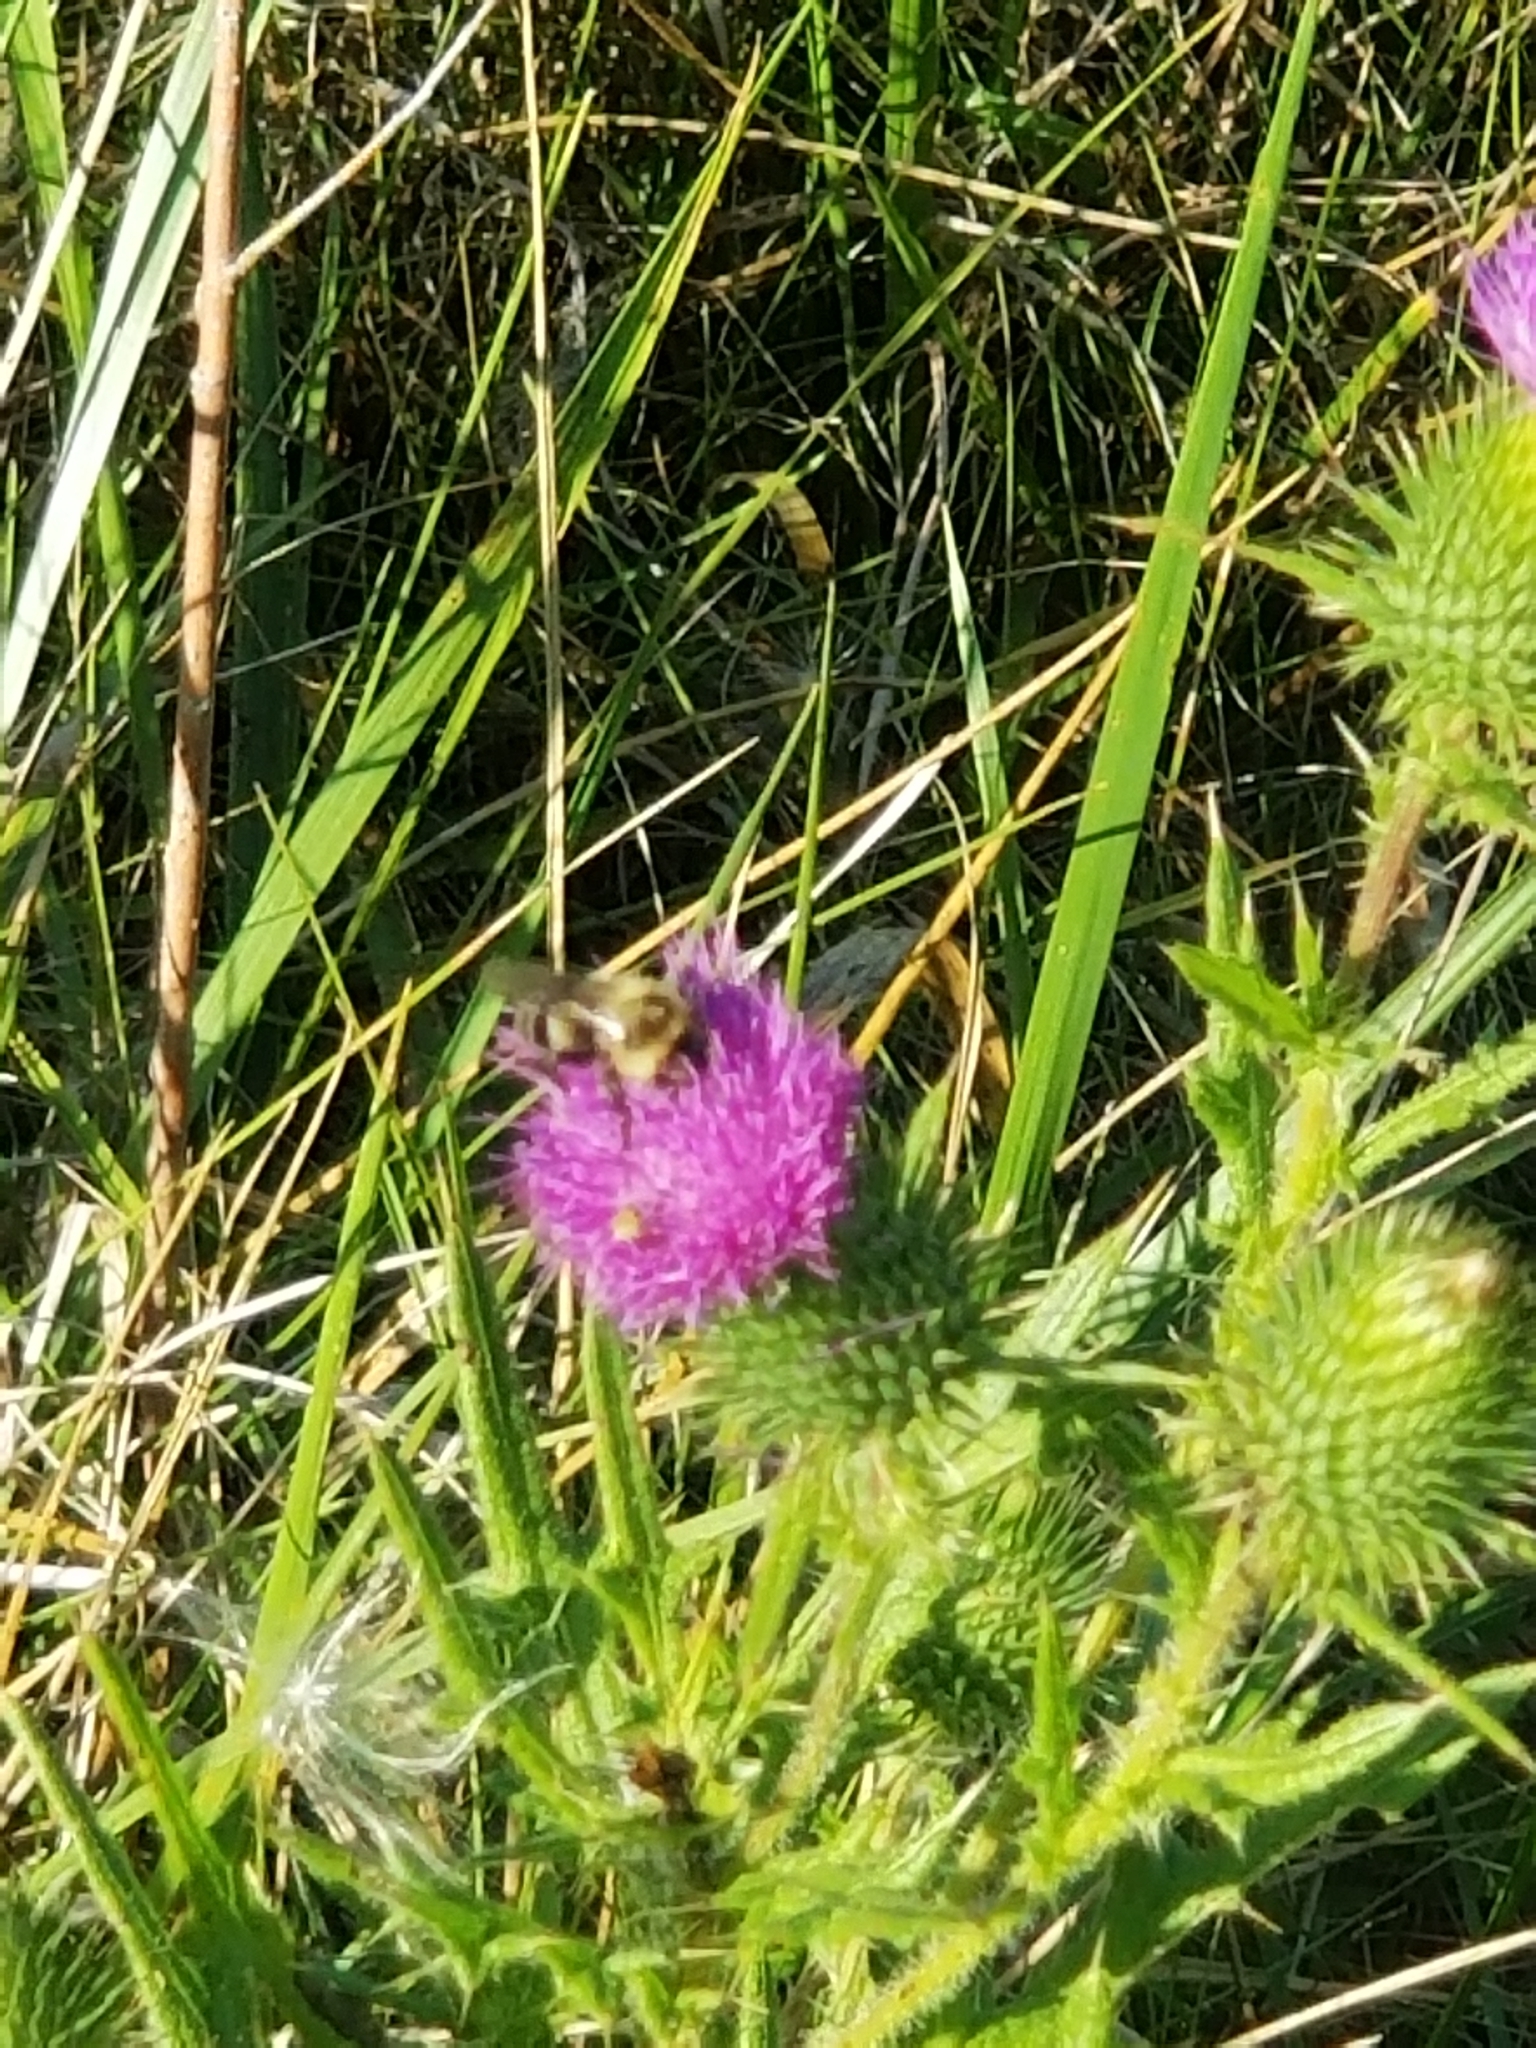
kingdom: Animalia
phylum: Arthropoda
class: Insecta
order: Hymenoptera
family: Apidae
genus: Bombus
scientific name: Bombus impatiens
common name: Common eastern bumble bee
